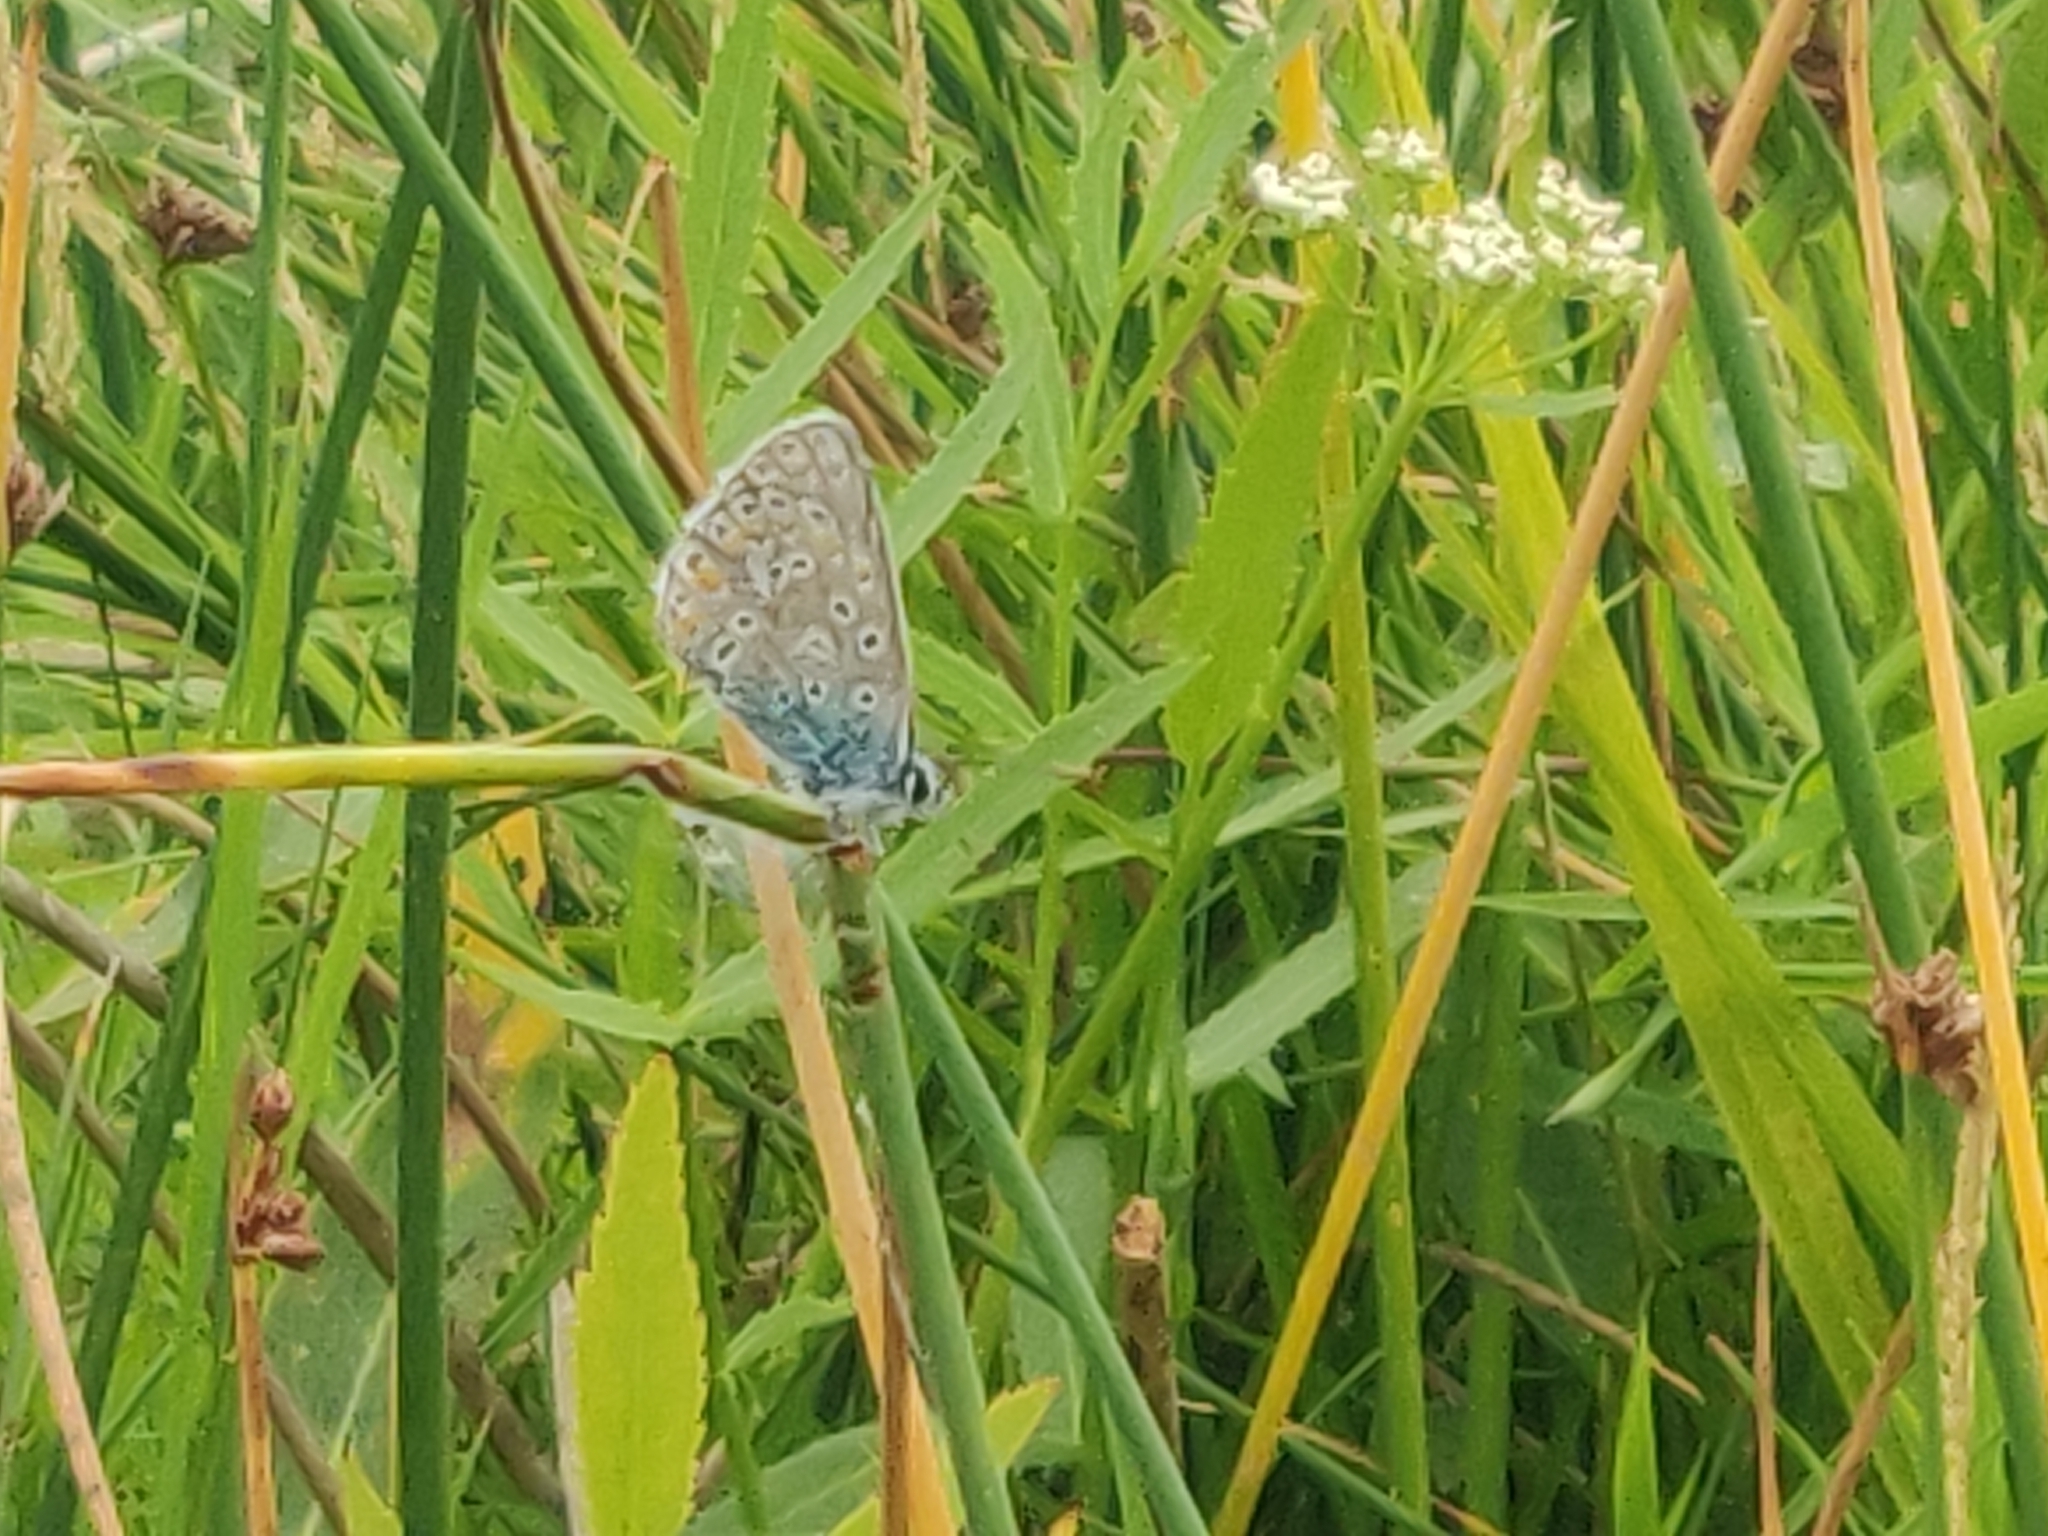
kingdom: Animalia
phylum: Arthropoda
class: Insecta
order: Lepidoptera
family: Lycaenidae
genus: Polyommatus
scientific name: Polyommatus icarus
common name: Common blue
